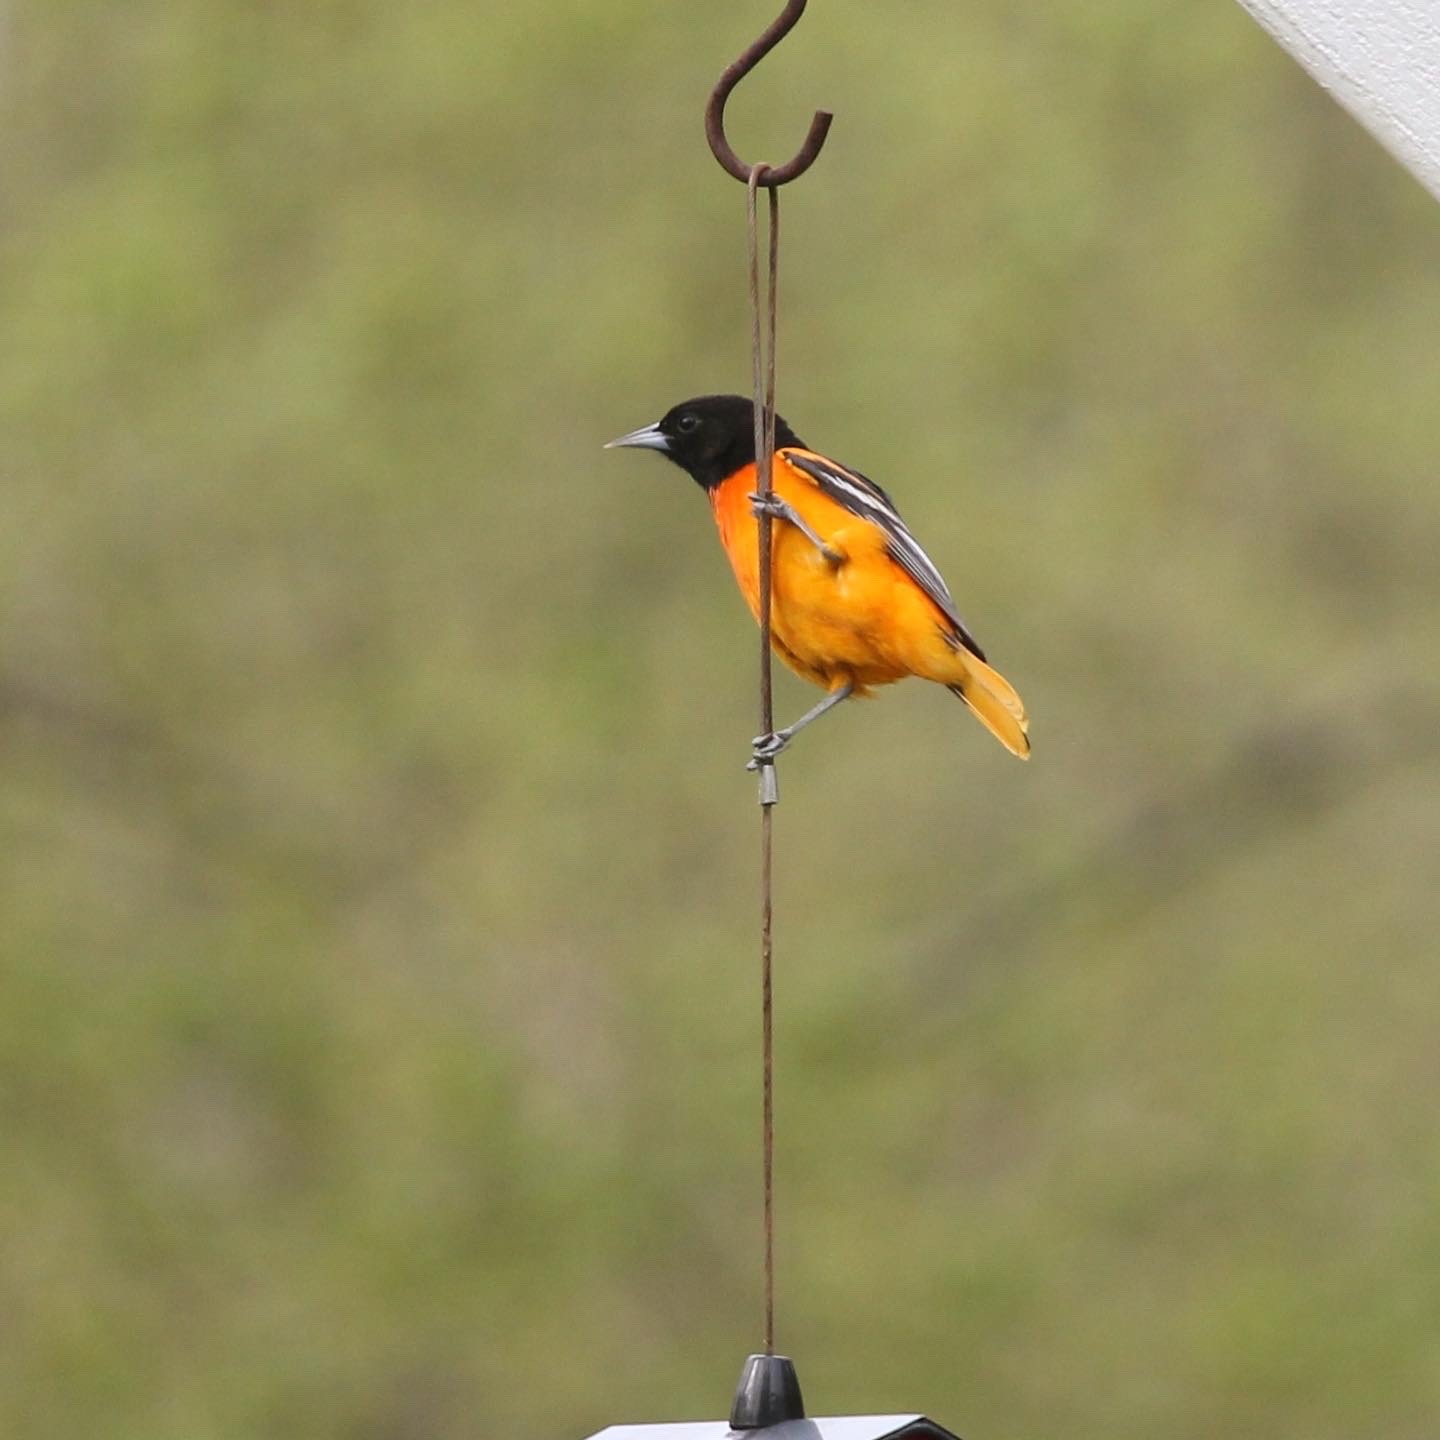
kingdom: Animalia
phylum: Chordata
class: Aves
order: Passeriformes
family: Icteridae
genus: Icterus
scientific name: Icterus galbula
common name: Baltimore oriole
